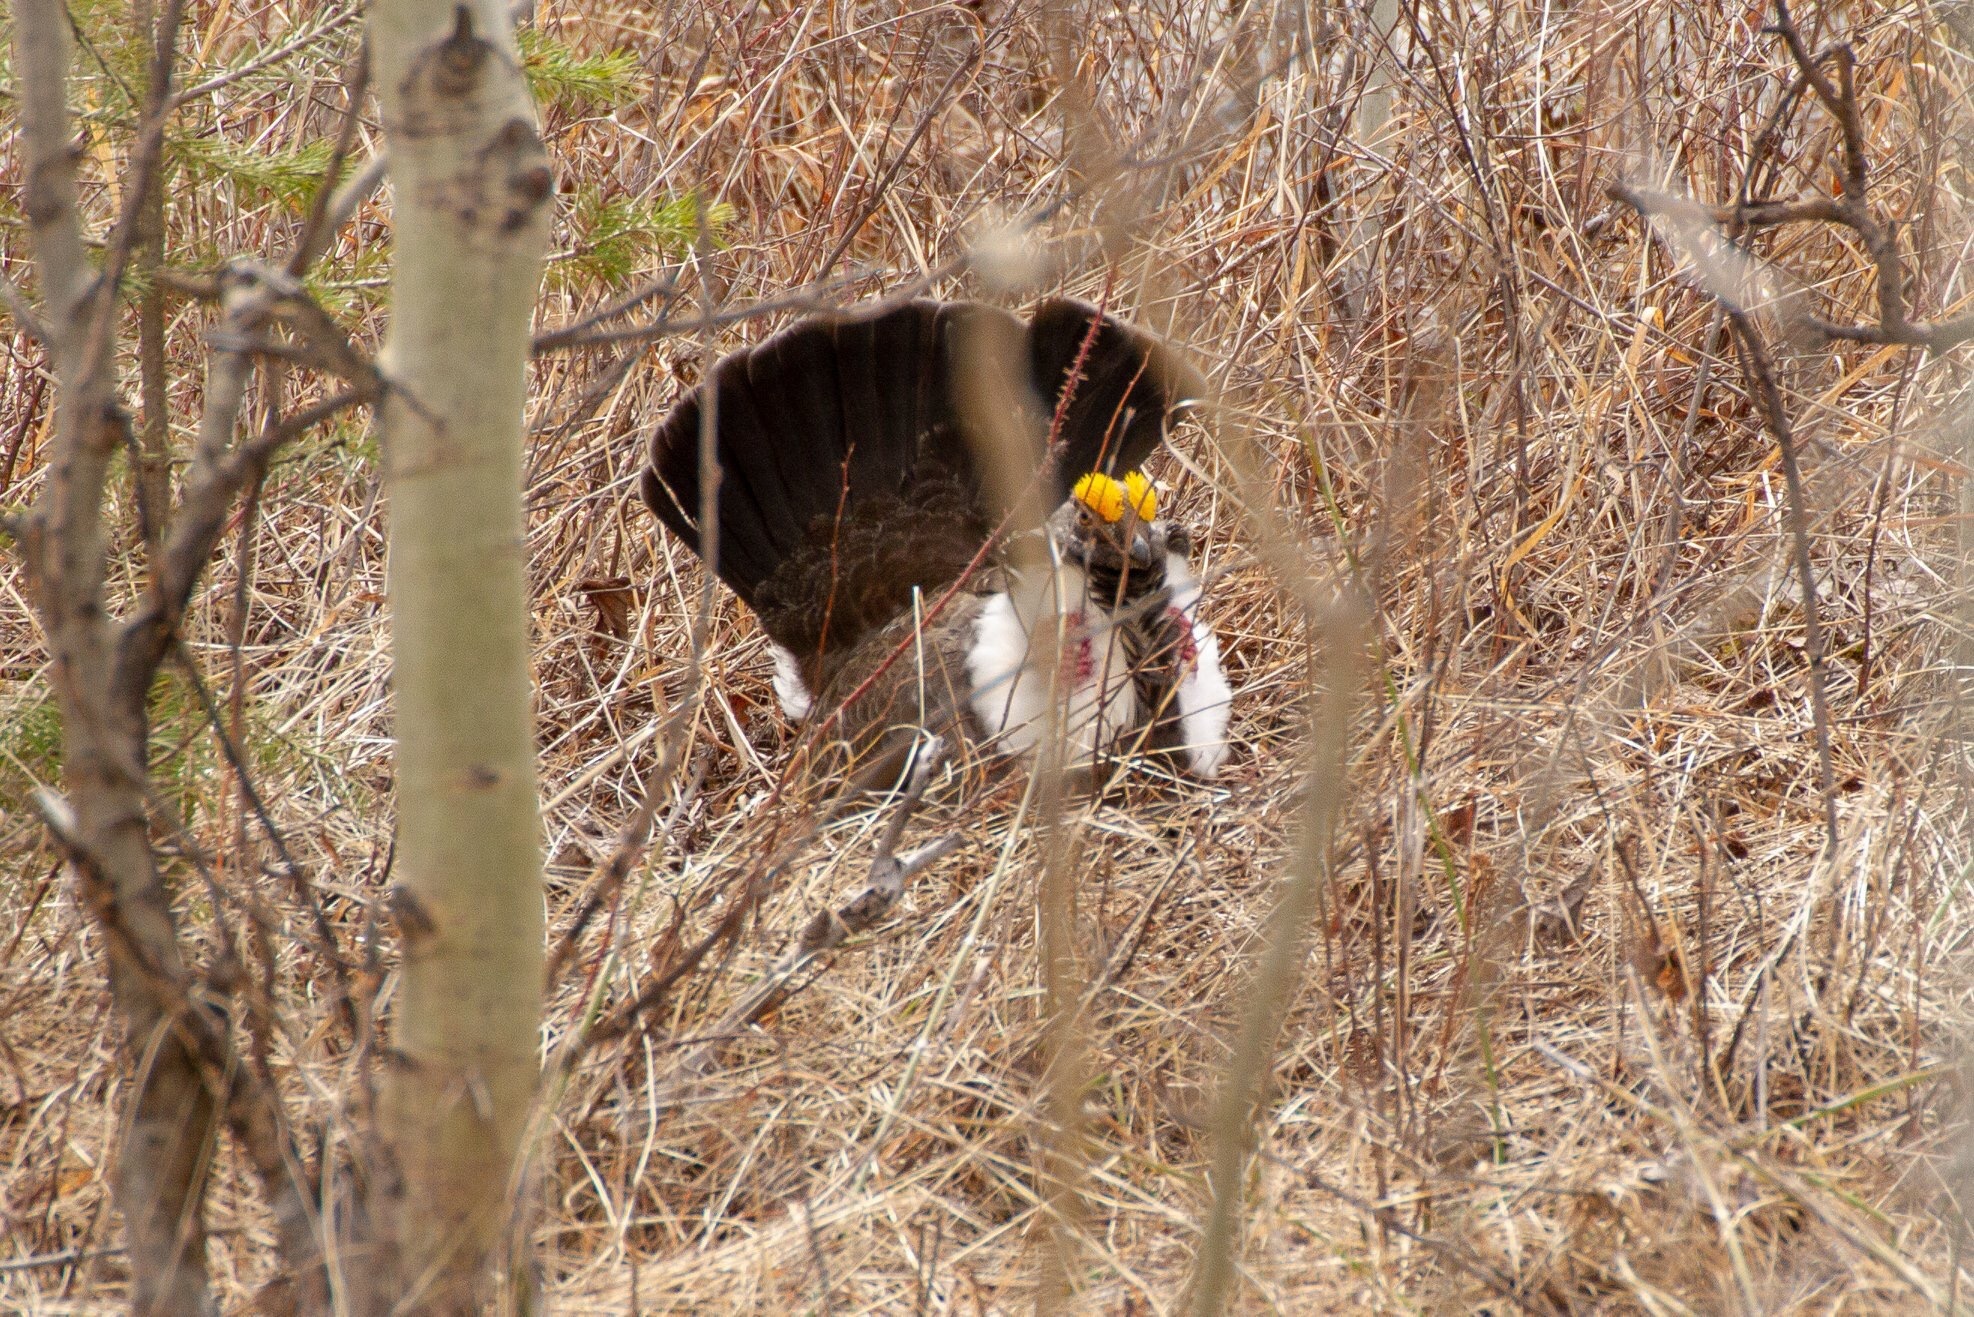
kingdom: Animalia
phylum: Chordata
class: Aves
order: Galliformes
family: Phasianidae
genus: Dendragapus
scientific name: Dendragapus obscurus
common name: Dusky grouse
